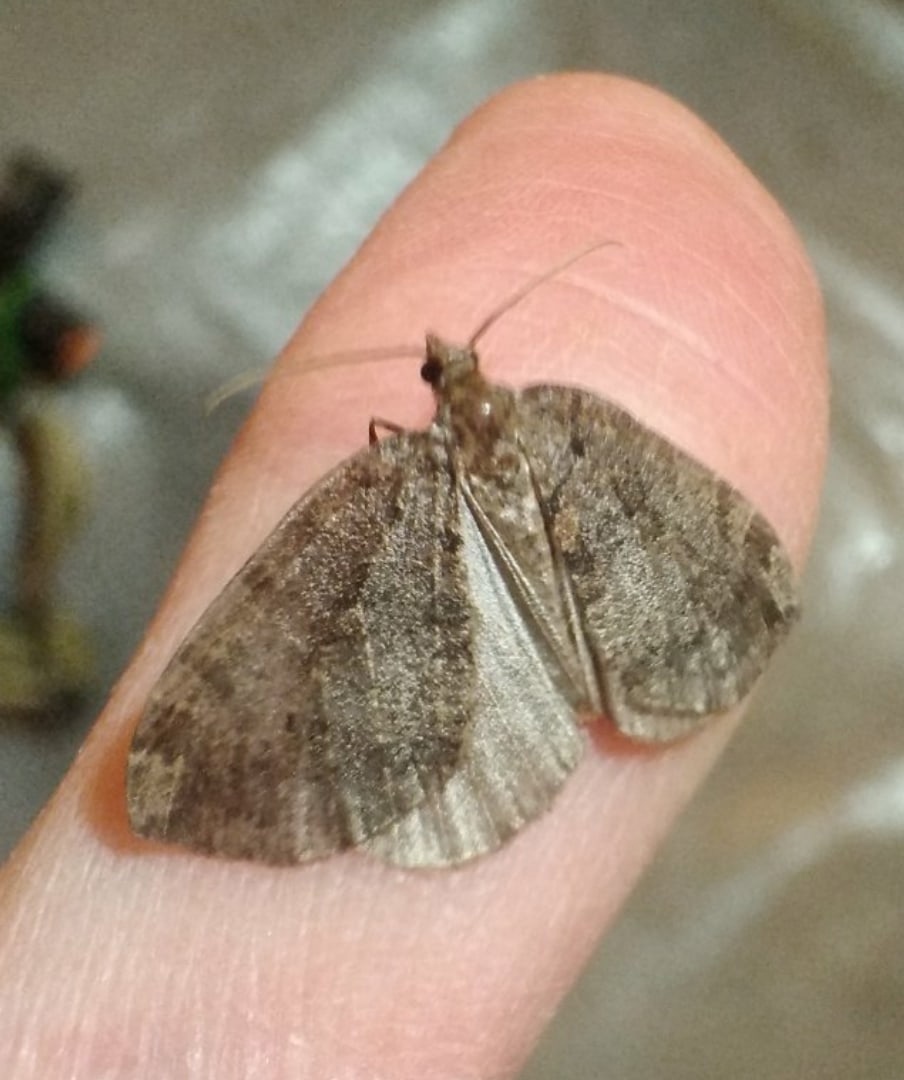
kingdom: Animalia
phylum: Arthropoda
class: Insecta
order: Lepidoptera
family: Noctuidae
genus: Graphiphora
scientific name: Graphiphora augur
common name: Double dart
